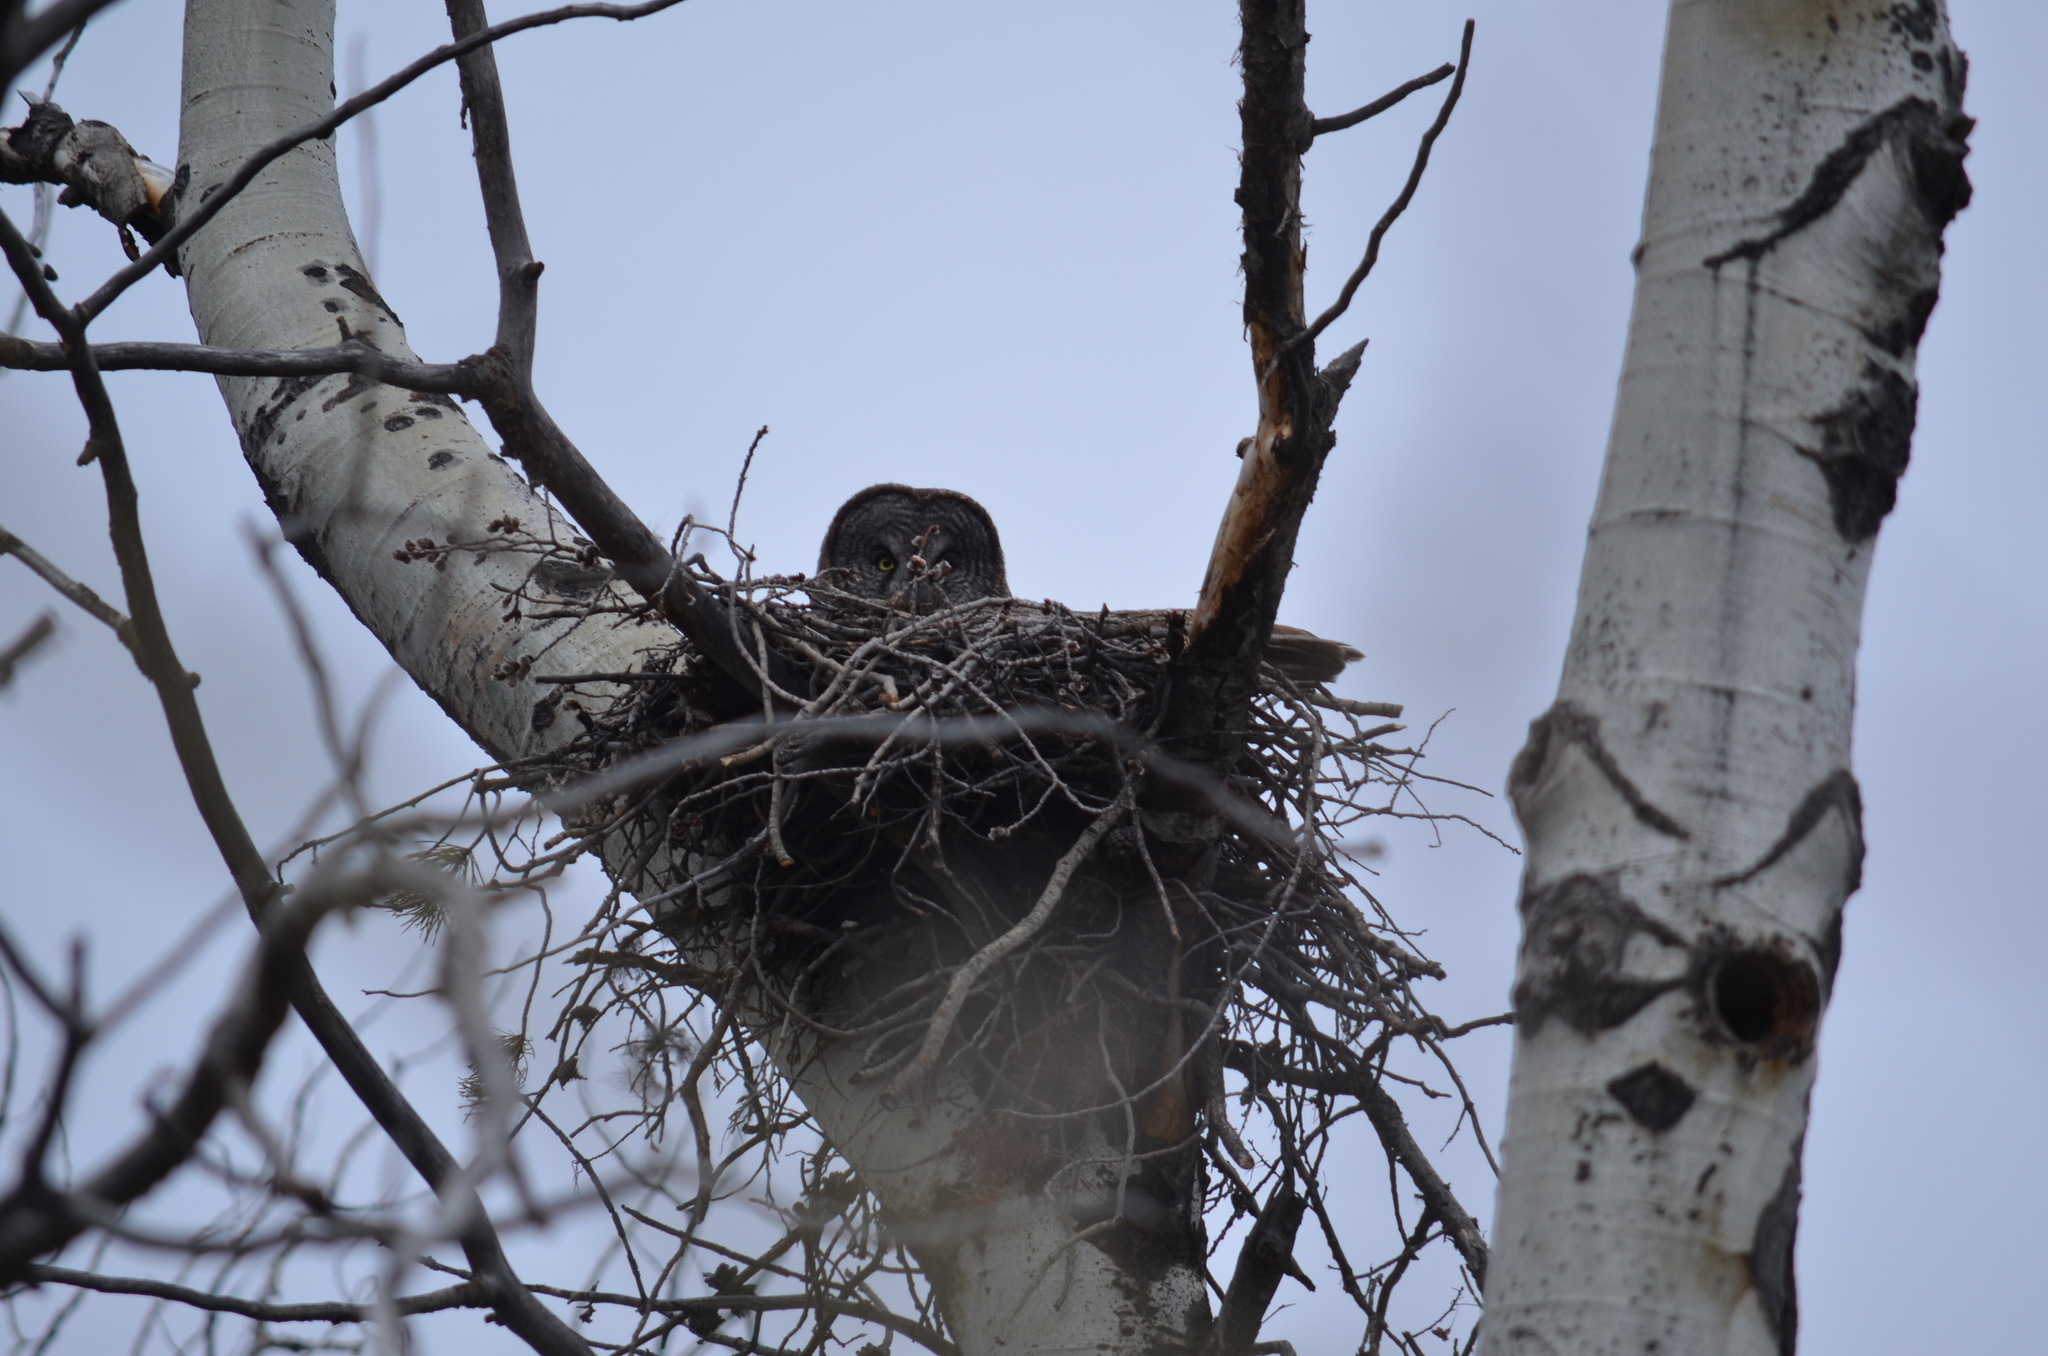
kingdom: Animalia
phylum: Chordata
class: Aves
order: Strigiformes
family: Strigidae
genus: Strix
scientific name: Strix nebulosa
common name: Great grey owl
